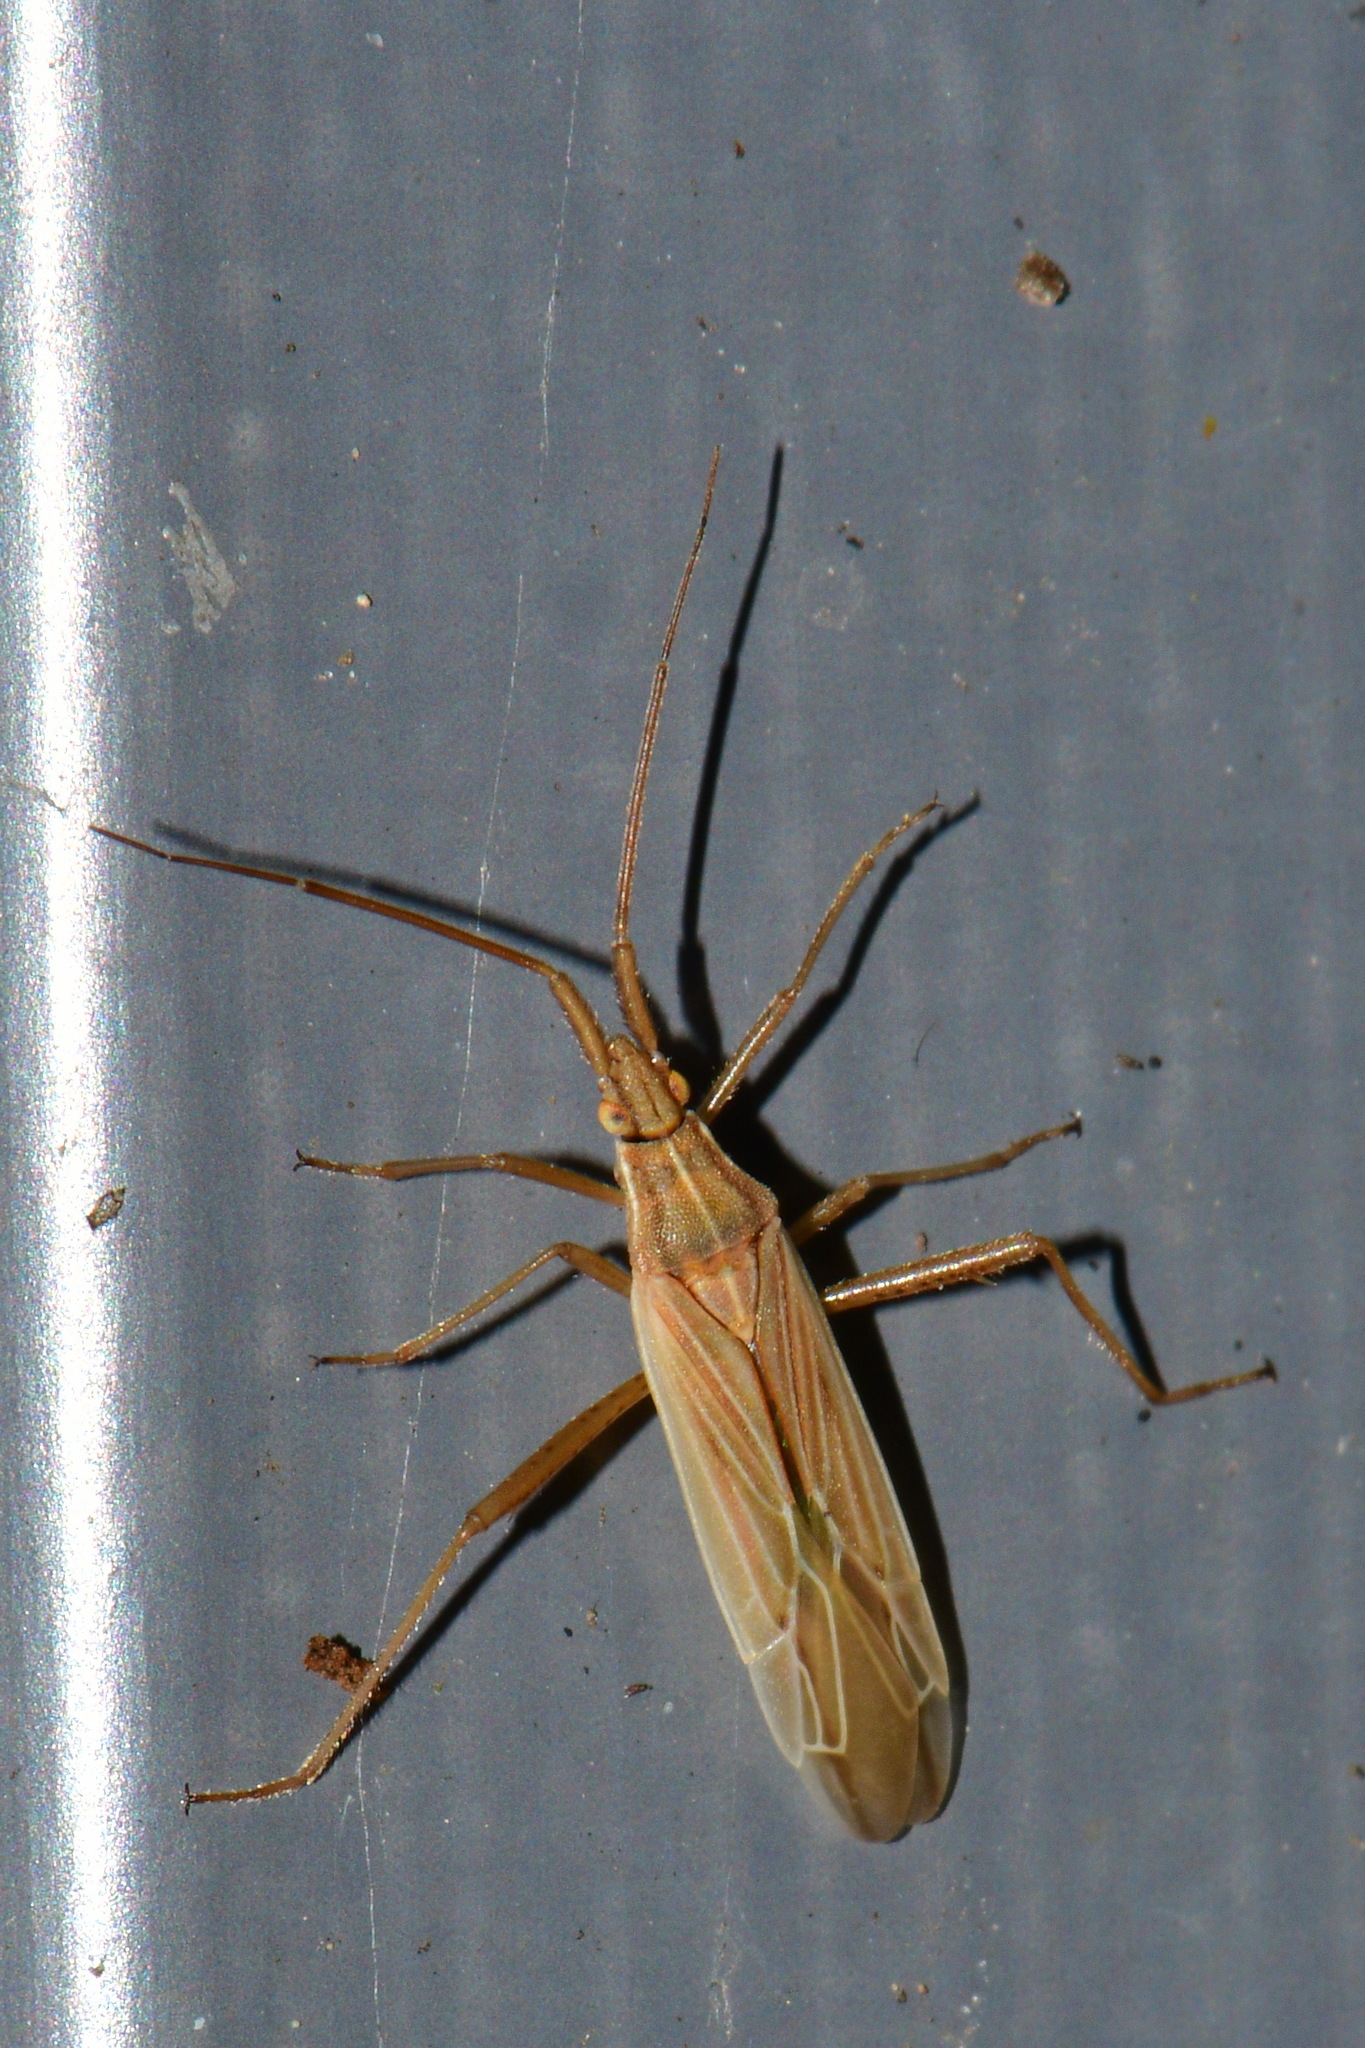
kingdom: Animalia
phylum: Arthropoda
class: Insecta
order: Hemiptera
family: Miridae
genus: Stenodema
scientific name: Stenodema calcarata
